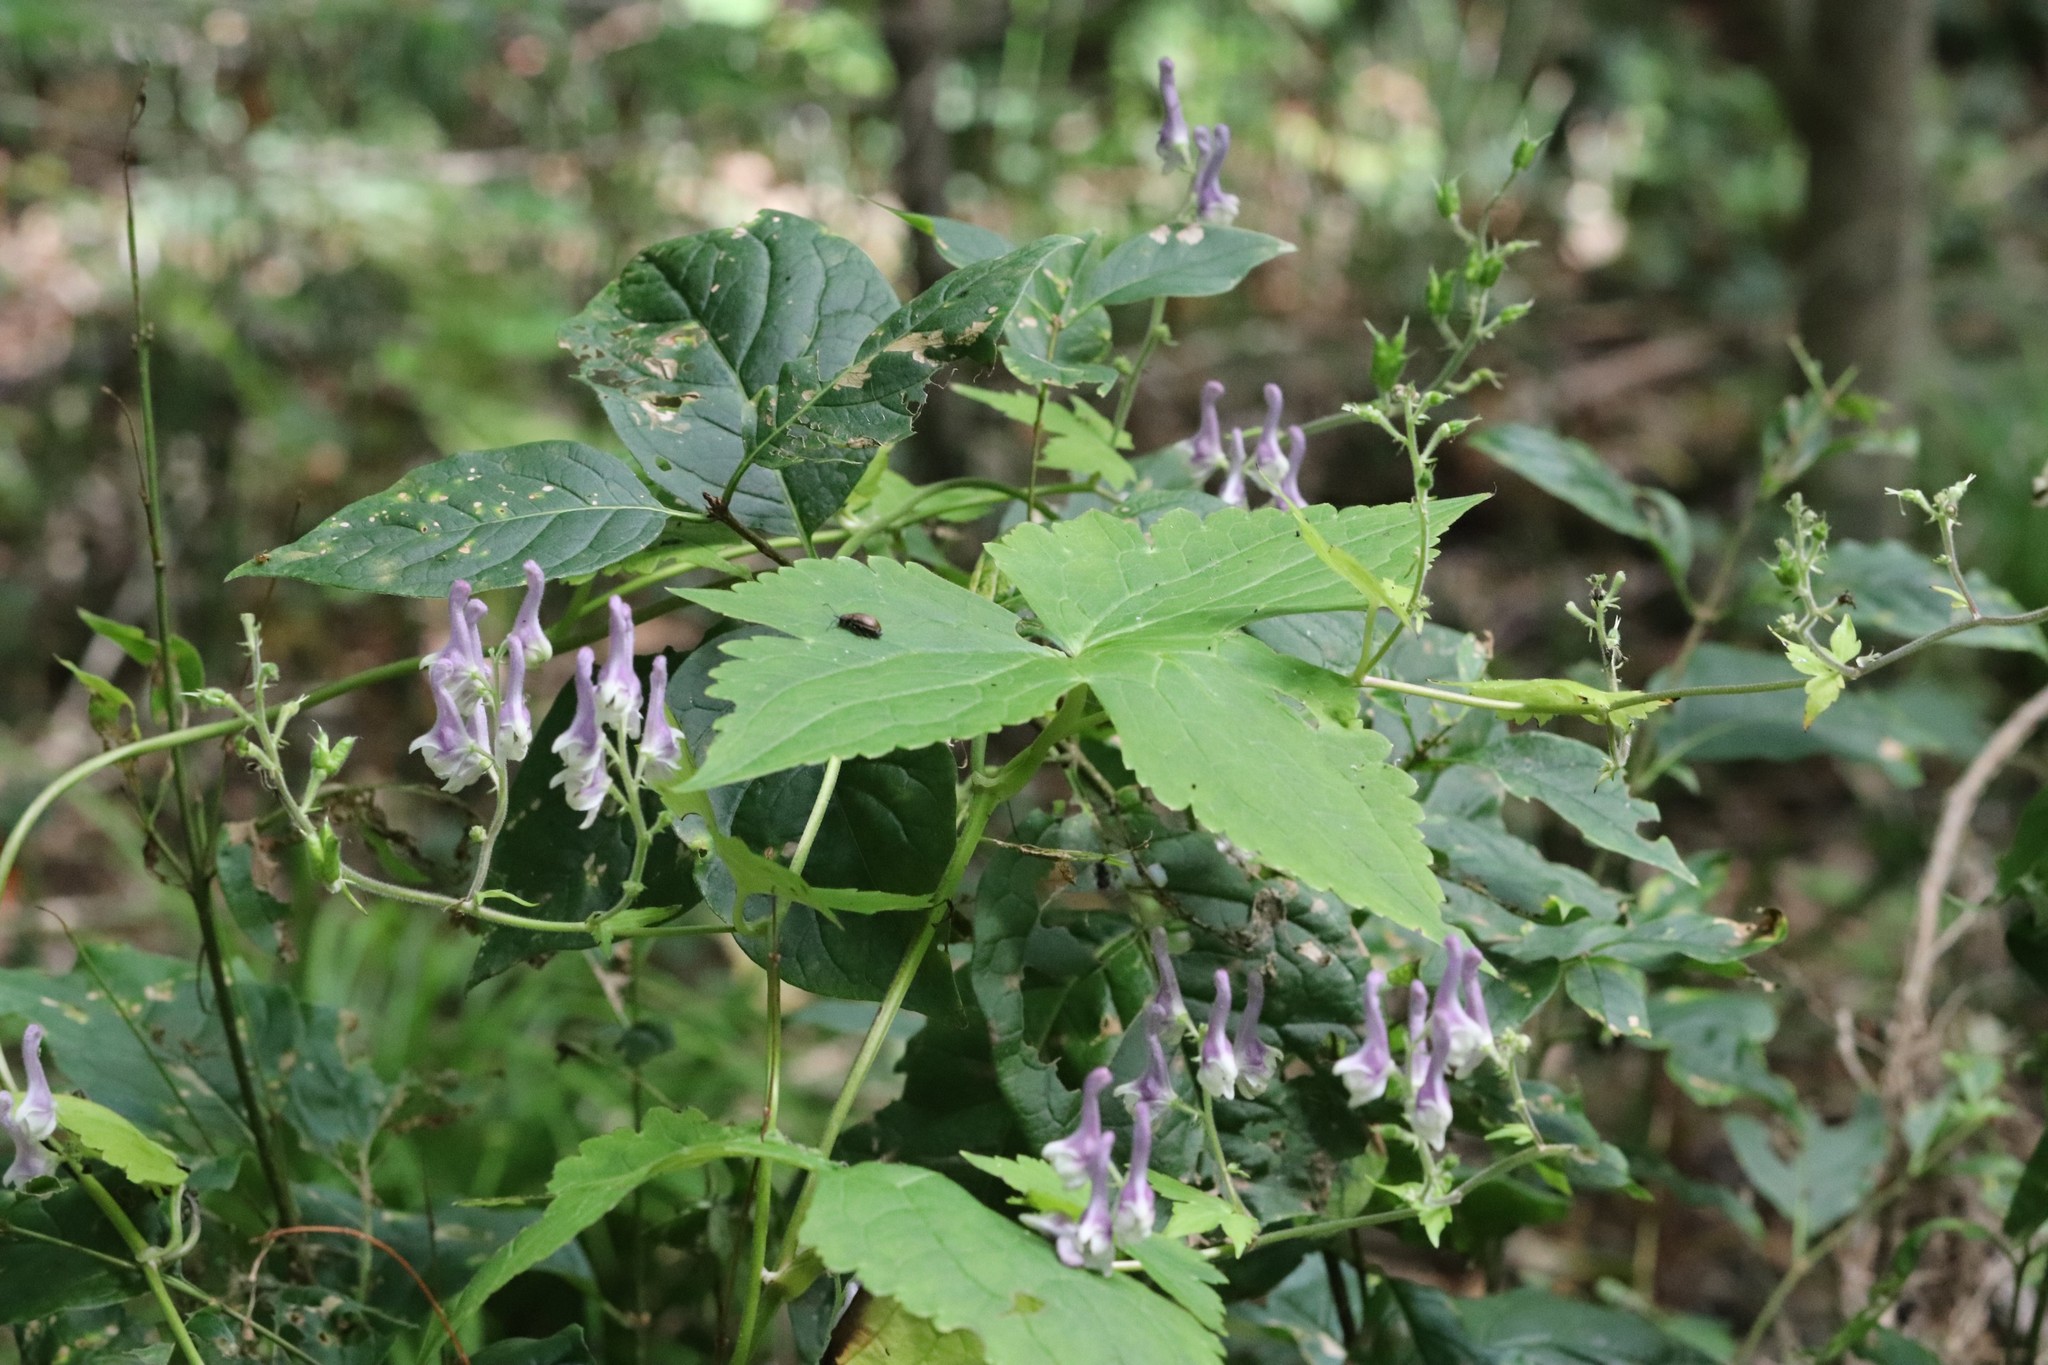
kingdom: Plantae
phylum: Tracheophyta
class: Magnoliopsida
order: Ranunculales
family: Ranunculaceae
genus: Aconitum
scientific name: Aconitum alboviolaceum
